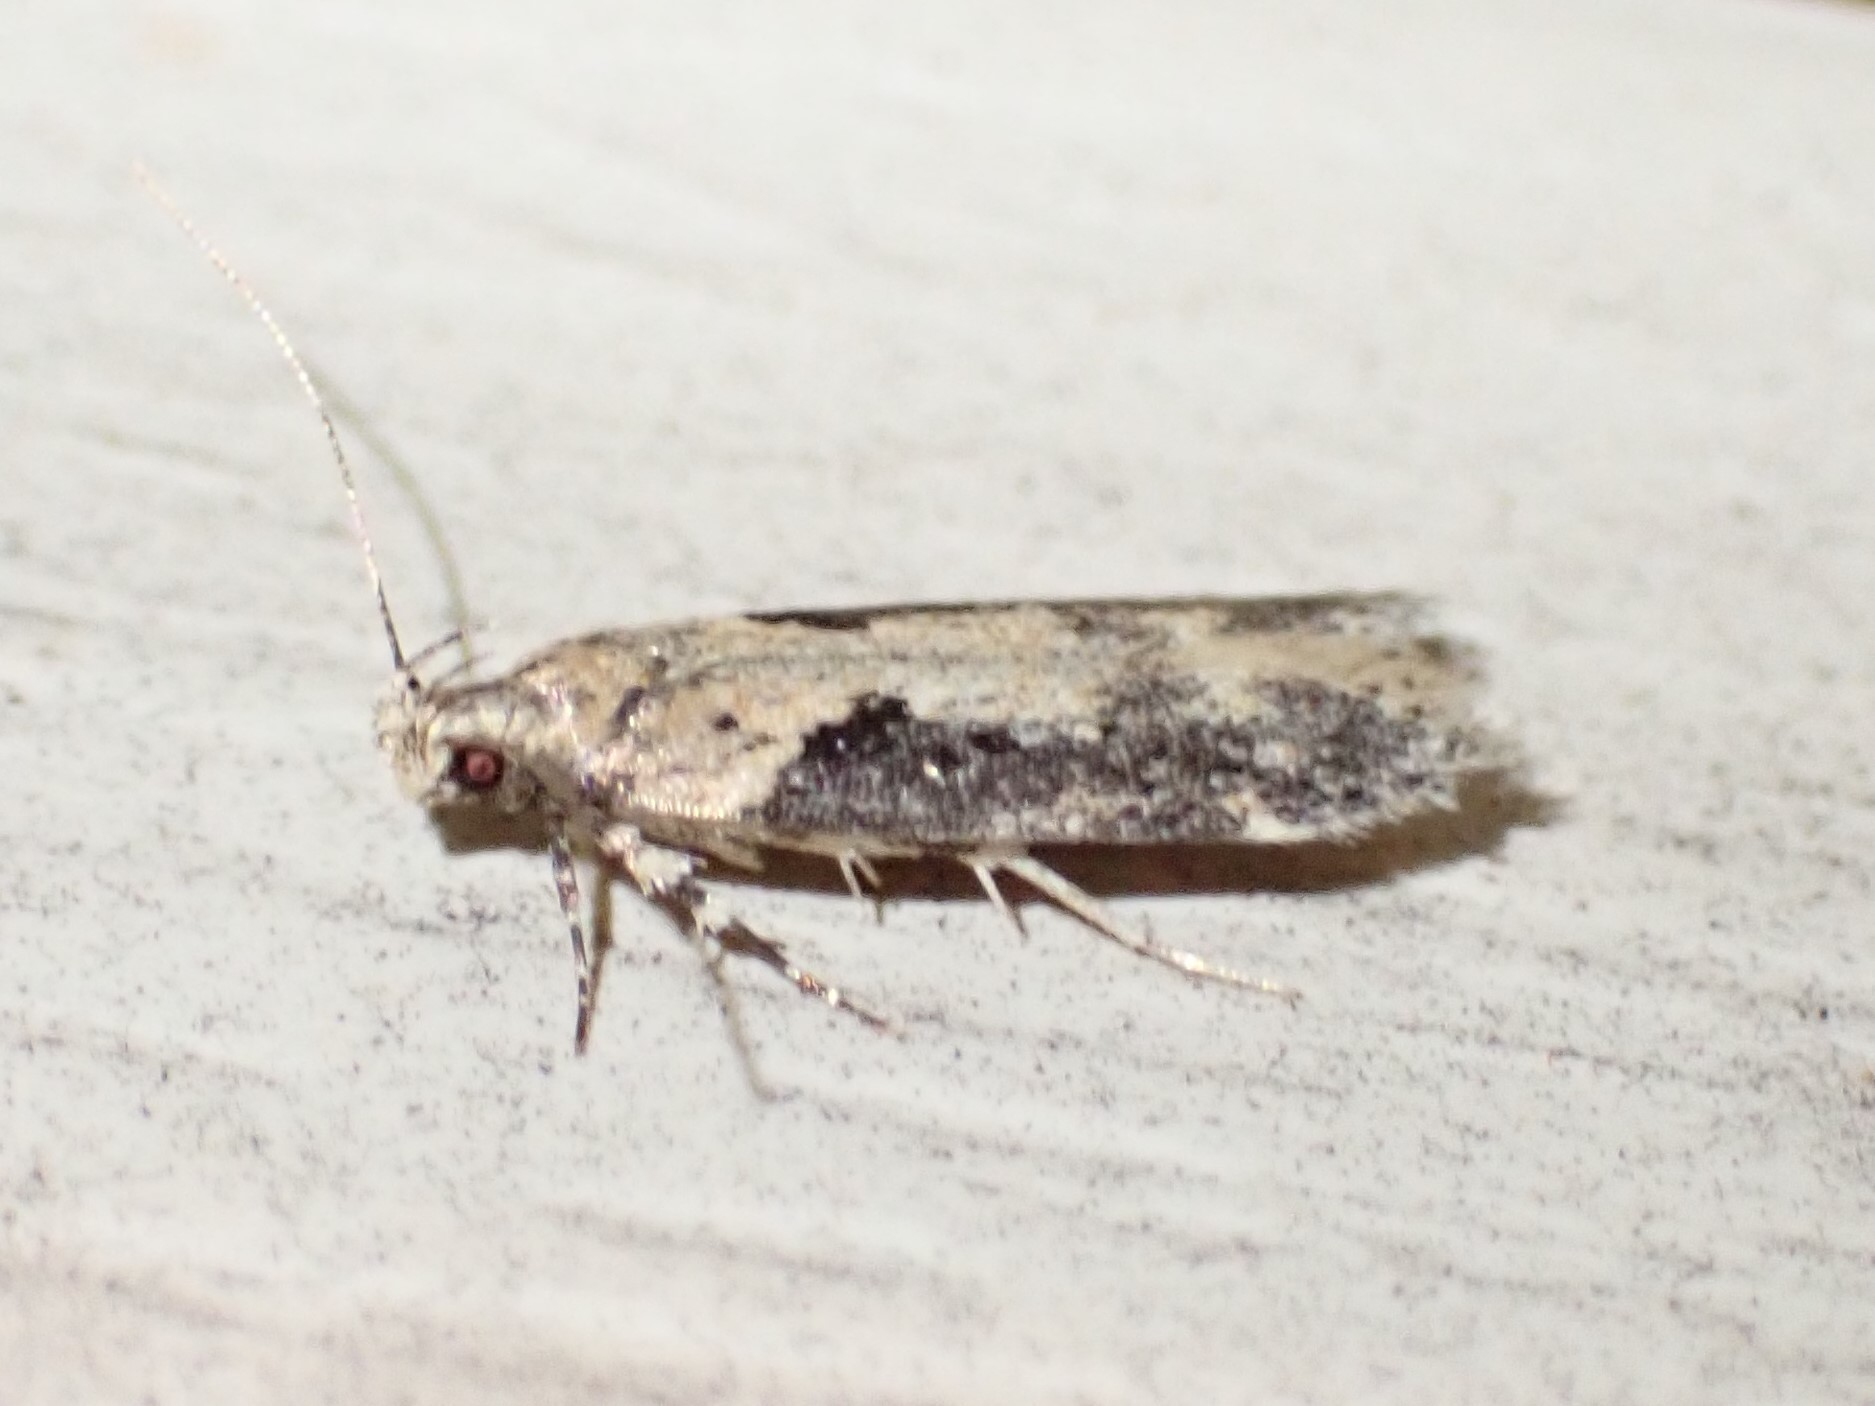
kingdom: Animalia
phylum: Arthropoda
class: Insecta
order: Lepidoptera
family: Gelechiidae
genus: Chionodes
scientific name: Chionodes mediofuscella
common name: Black-smudged chionodes moth
